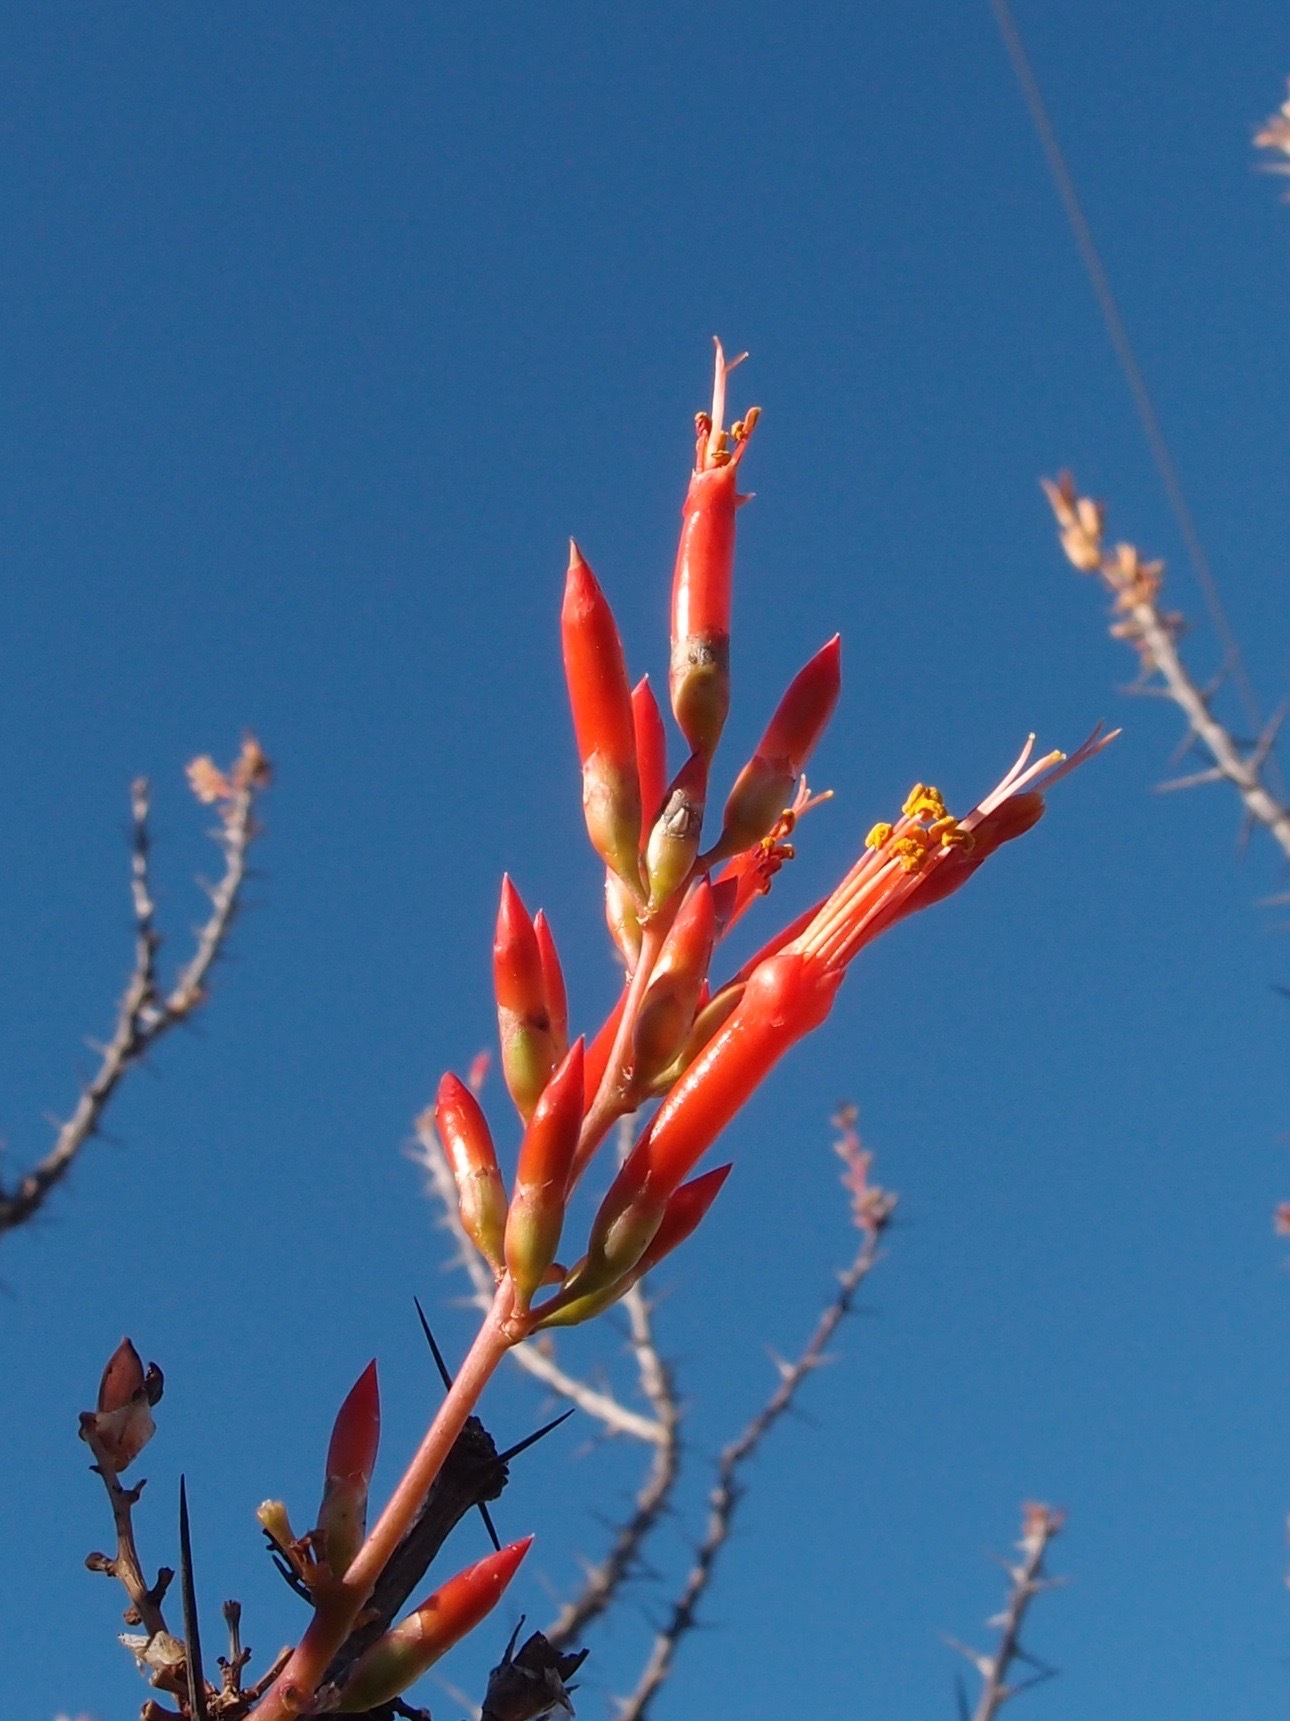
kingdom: Plantae
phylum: Tracheophyta
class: Magnoliopsida
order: Ericales
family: Fouquieriaceae
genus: Fouquieria
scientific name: Fouquieria diguetii
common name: Adam's tree
